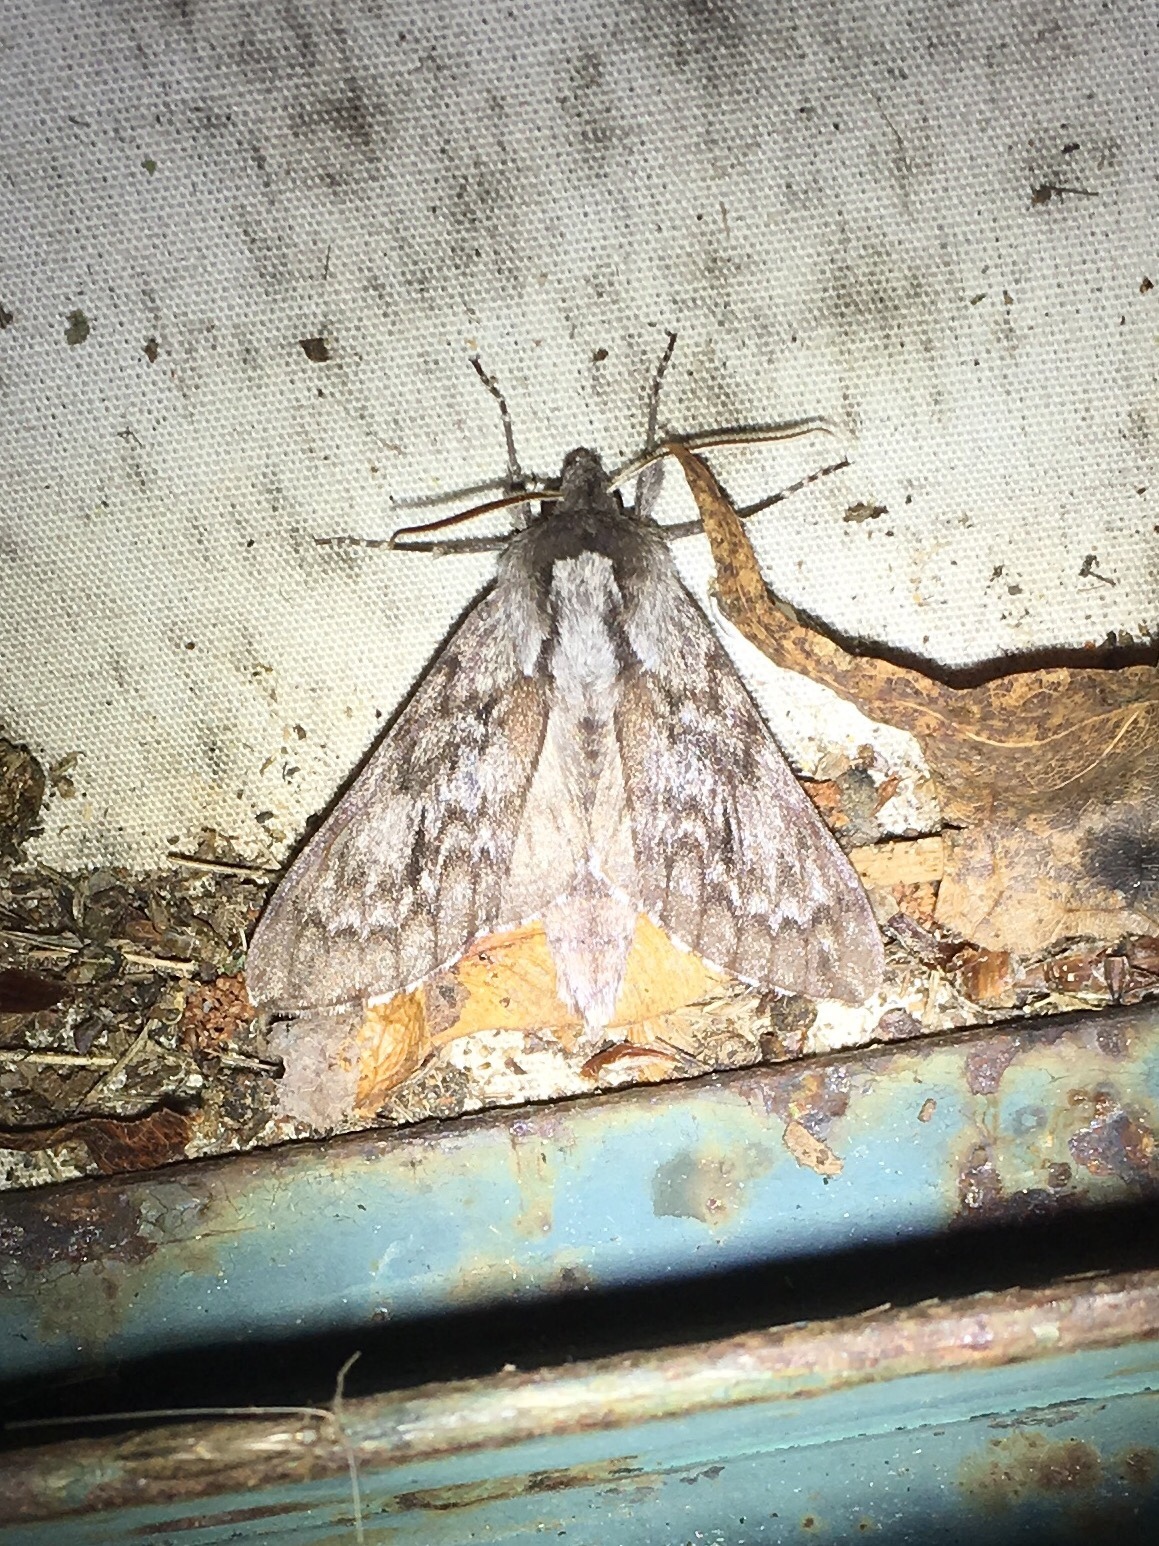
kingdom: Animalia
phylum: Arthropoda
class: Insecta
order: Lepidoptera
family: Sphingidae
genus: Lapara
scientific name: Lapara bombycoides
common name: Northern pine sphinx
